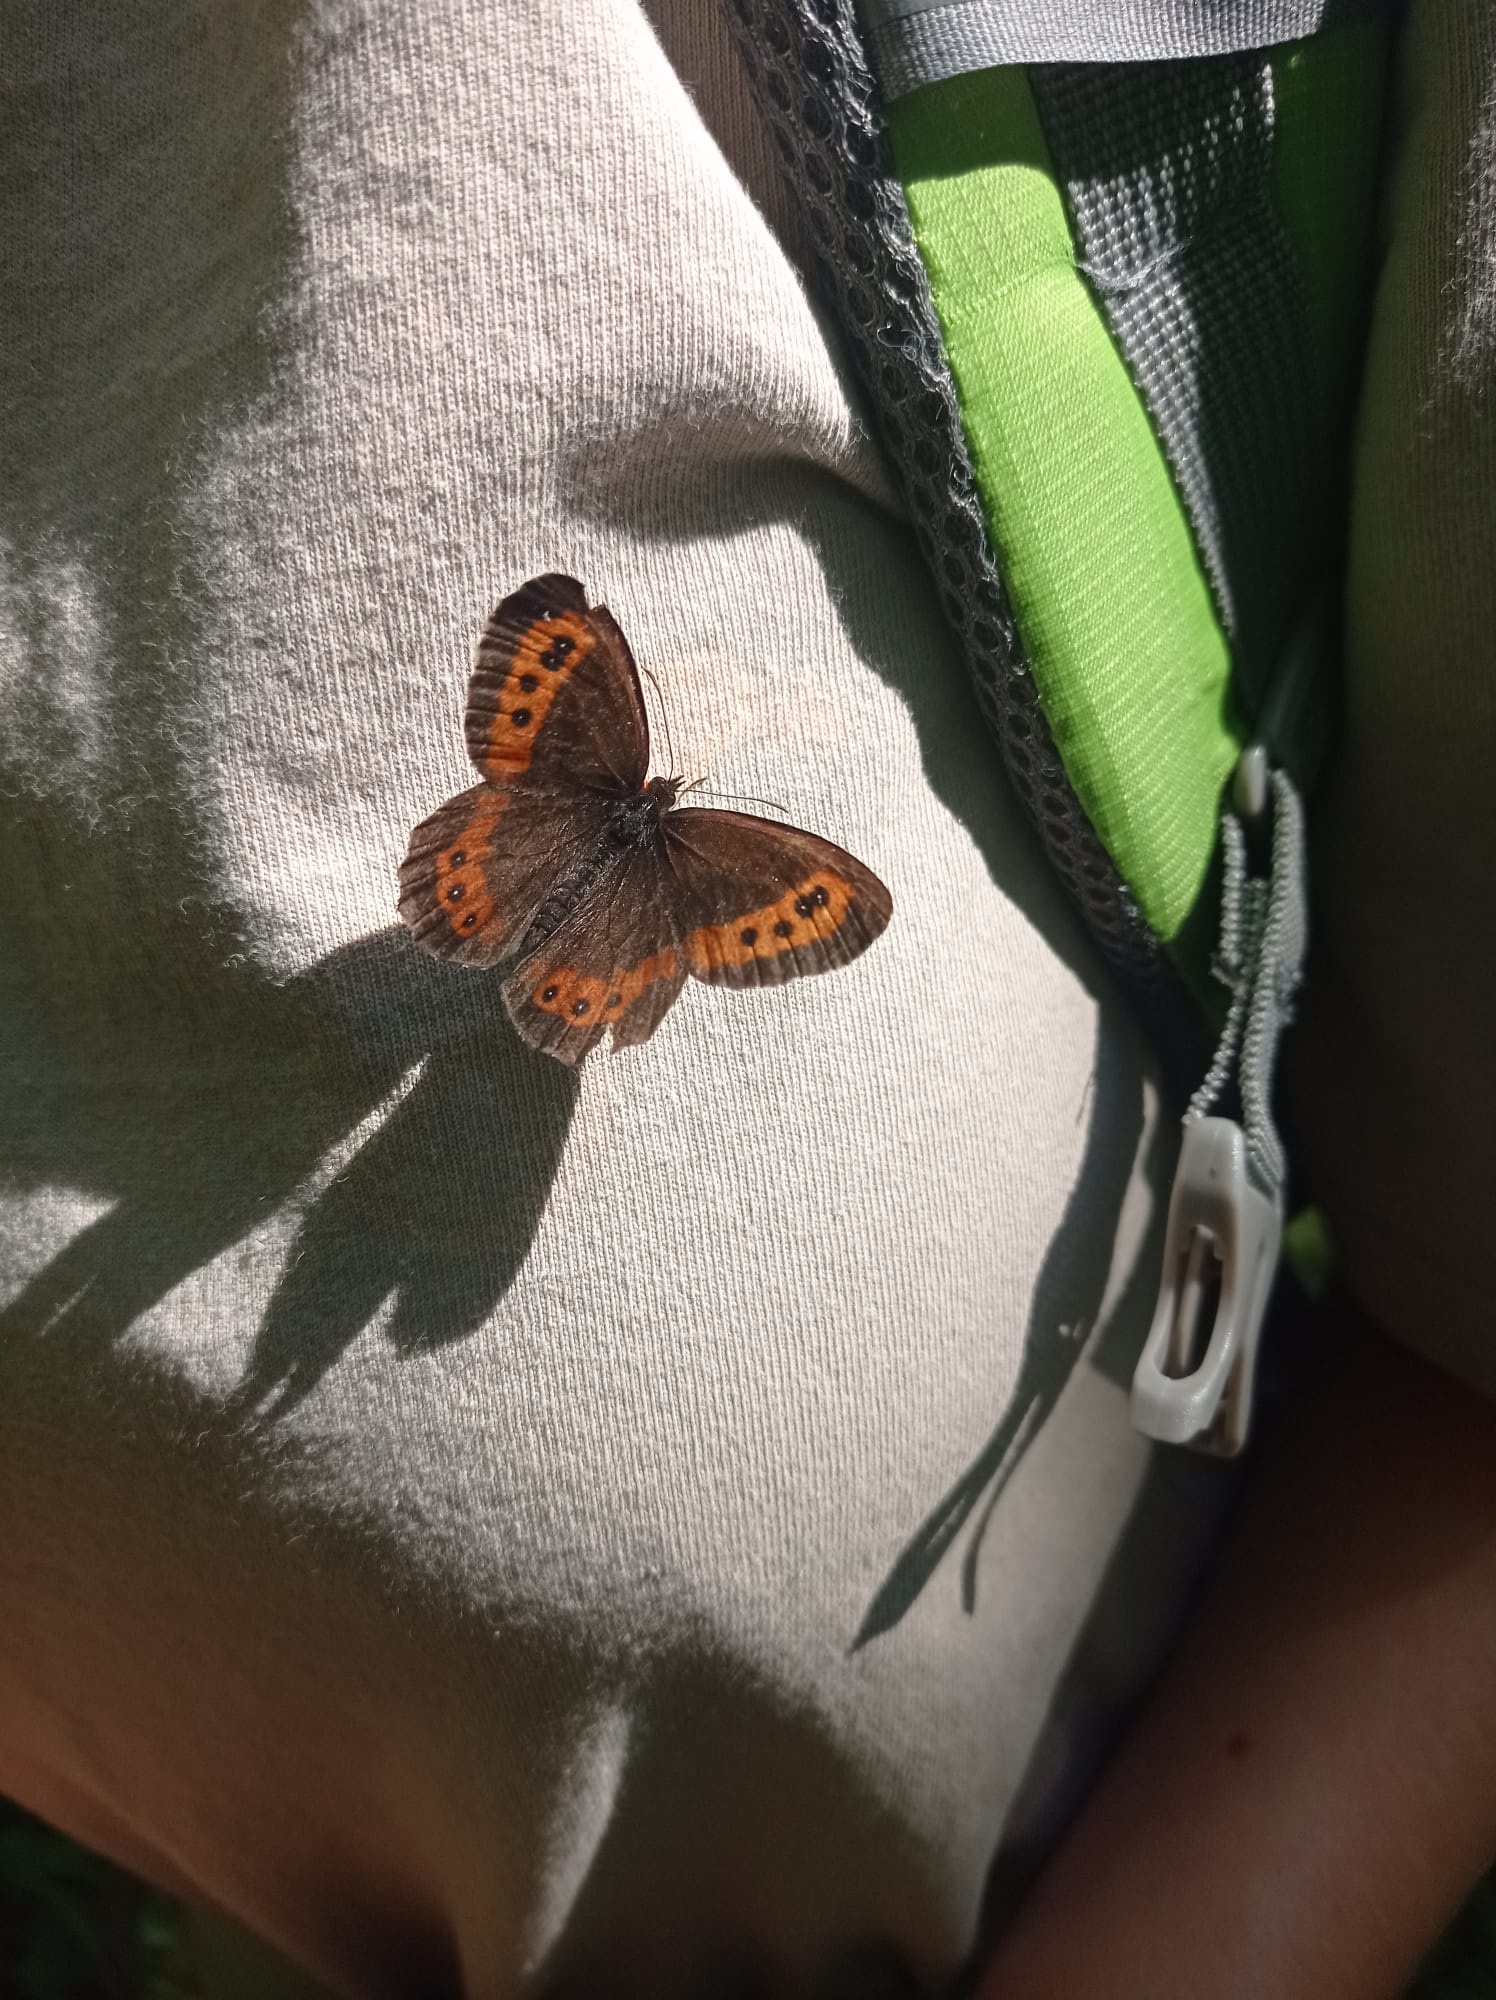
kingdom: Animalia
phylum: Arthropoda
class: Insecta
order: Lepidoptera
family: Nymphalidae
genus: Erebia
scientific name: Erebia ligea
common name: Arran brown
